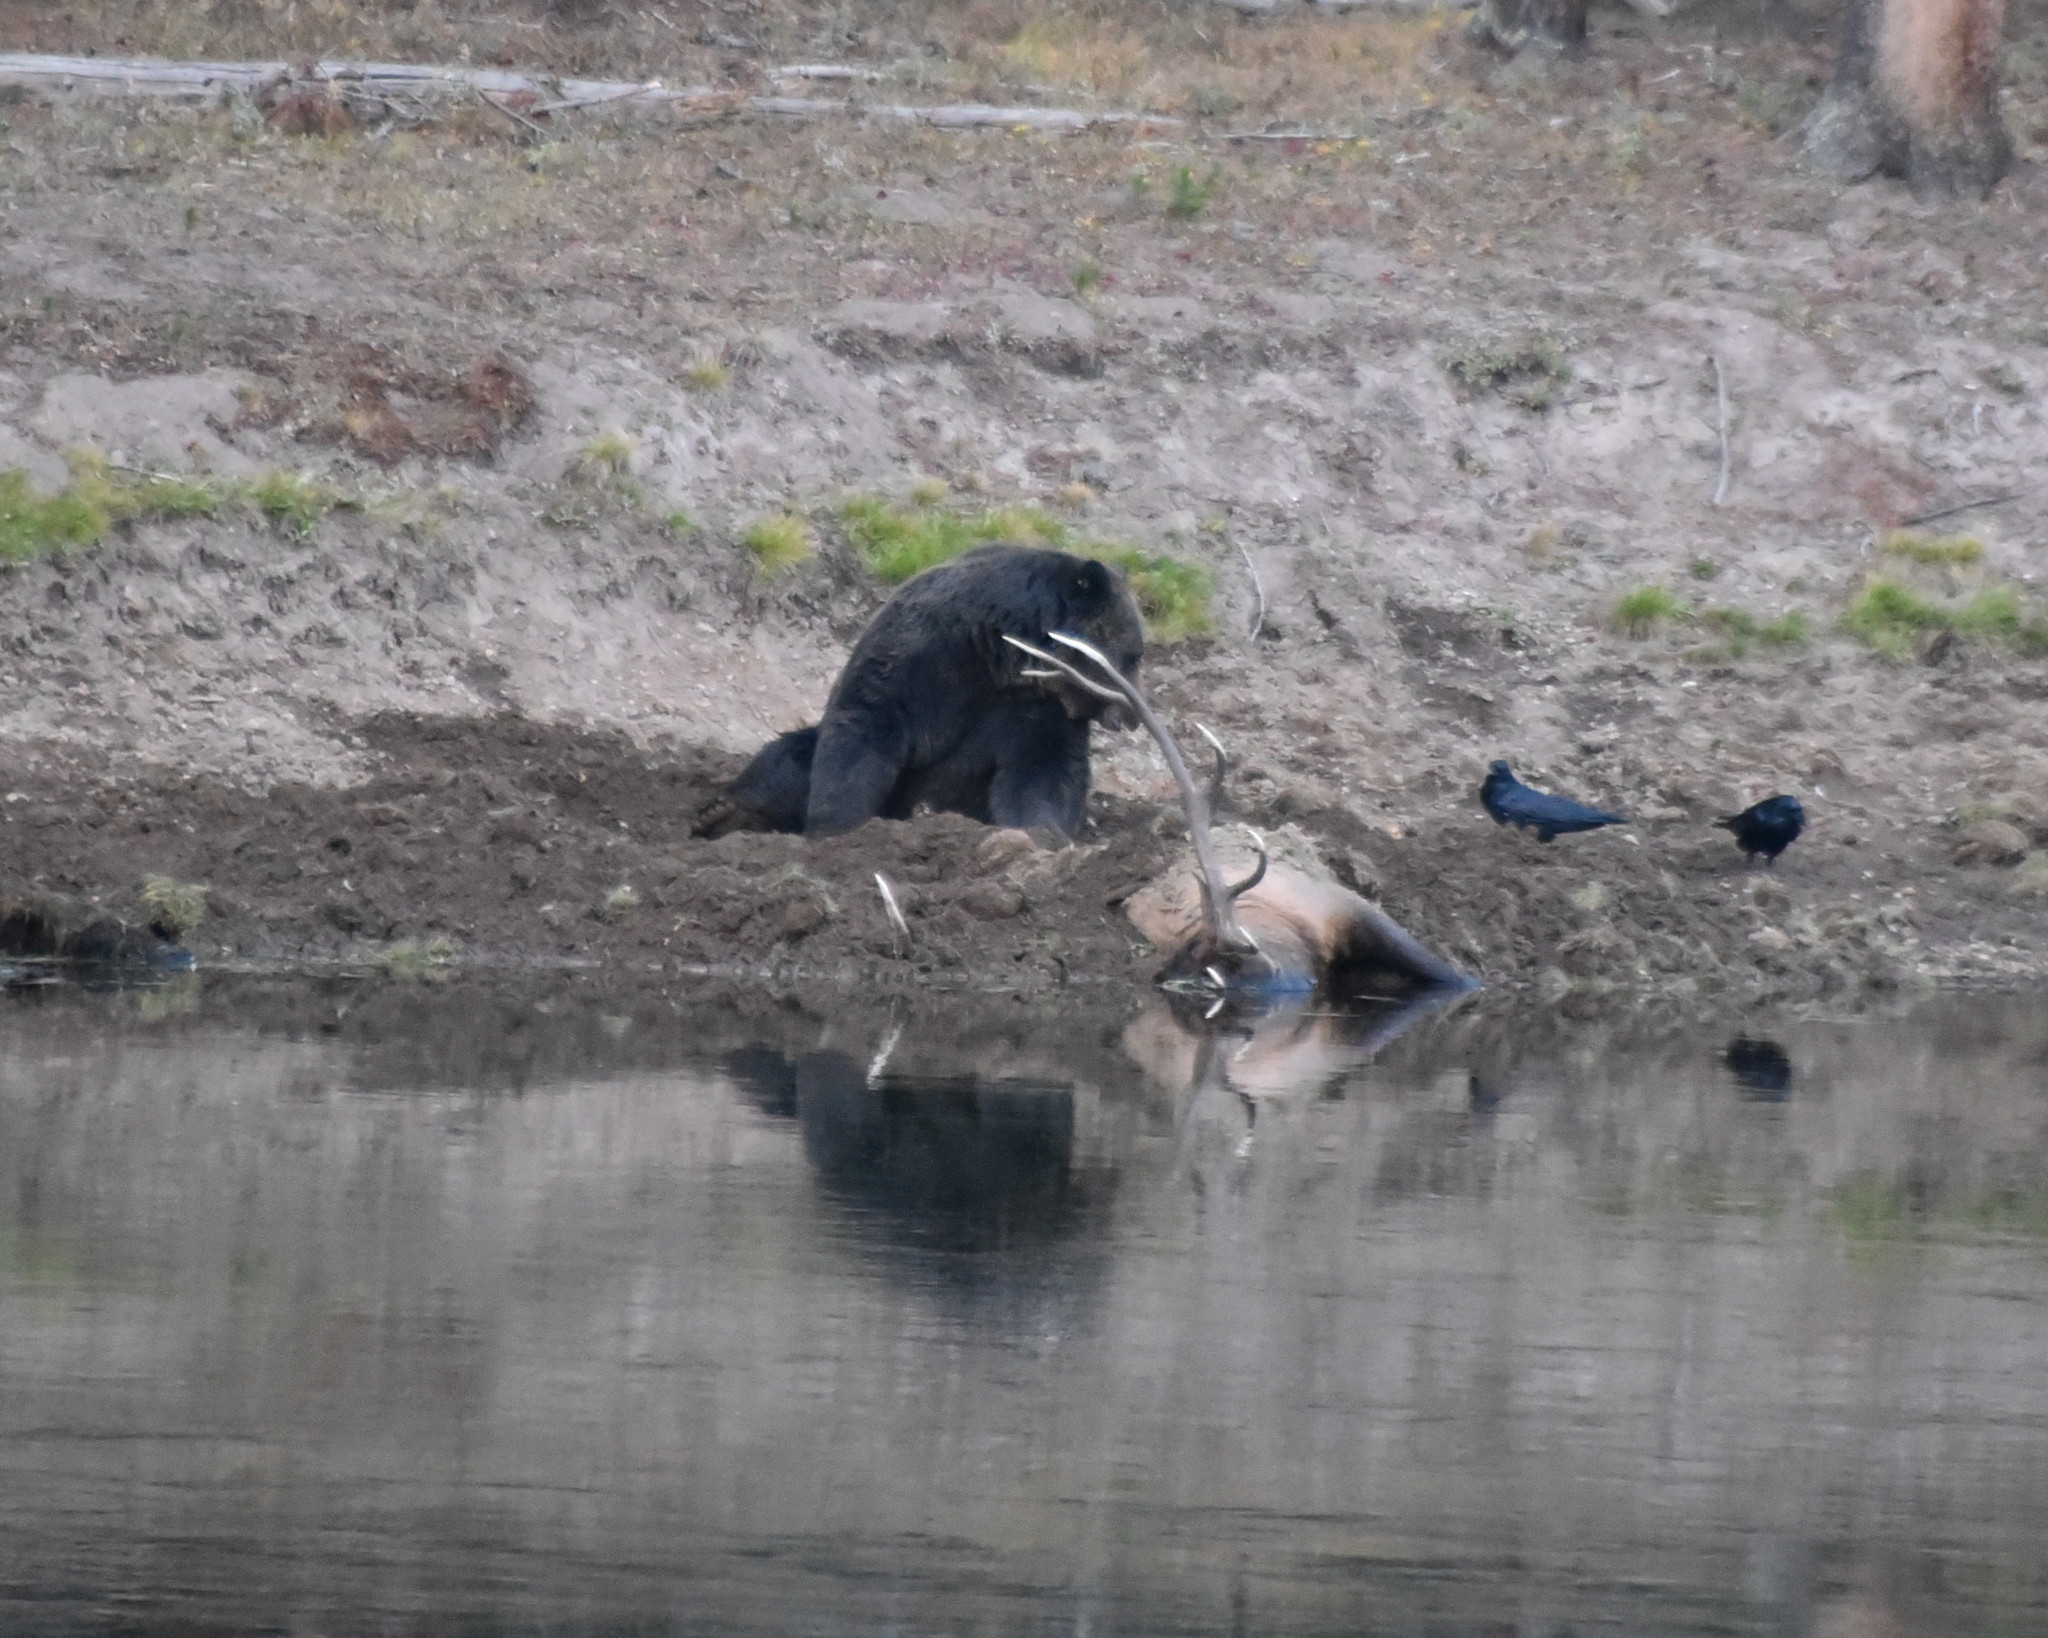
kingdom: Animalia
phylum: Chordata
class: Mammalia
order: Carnivora
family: Ursidae
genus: Ursus
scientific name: Ursus arctos
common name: Brown bear
